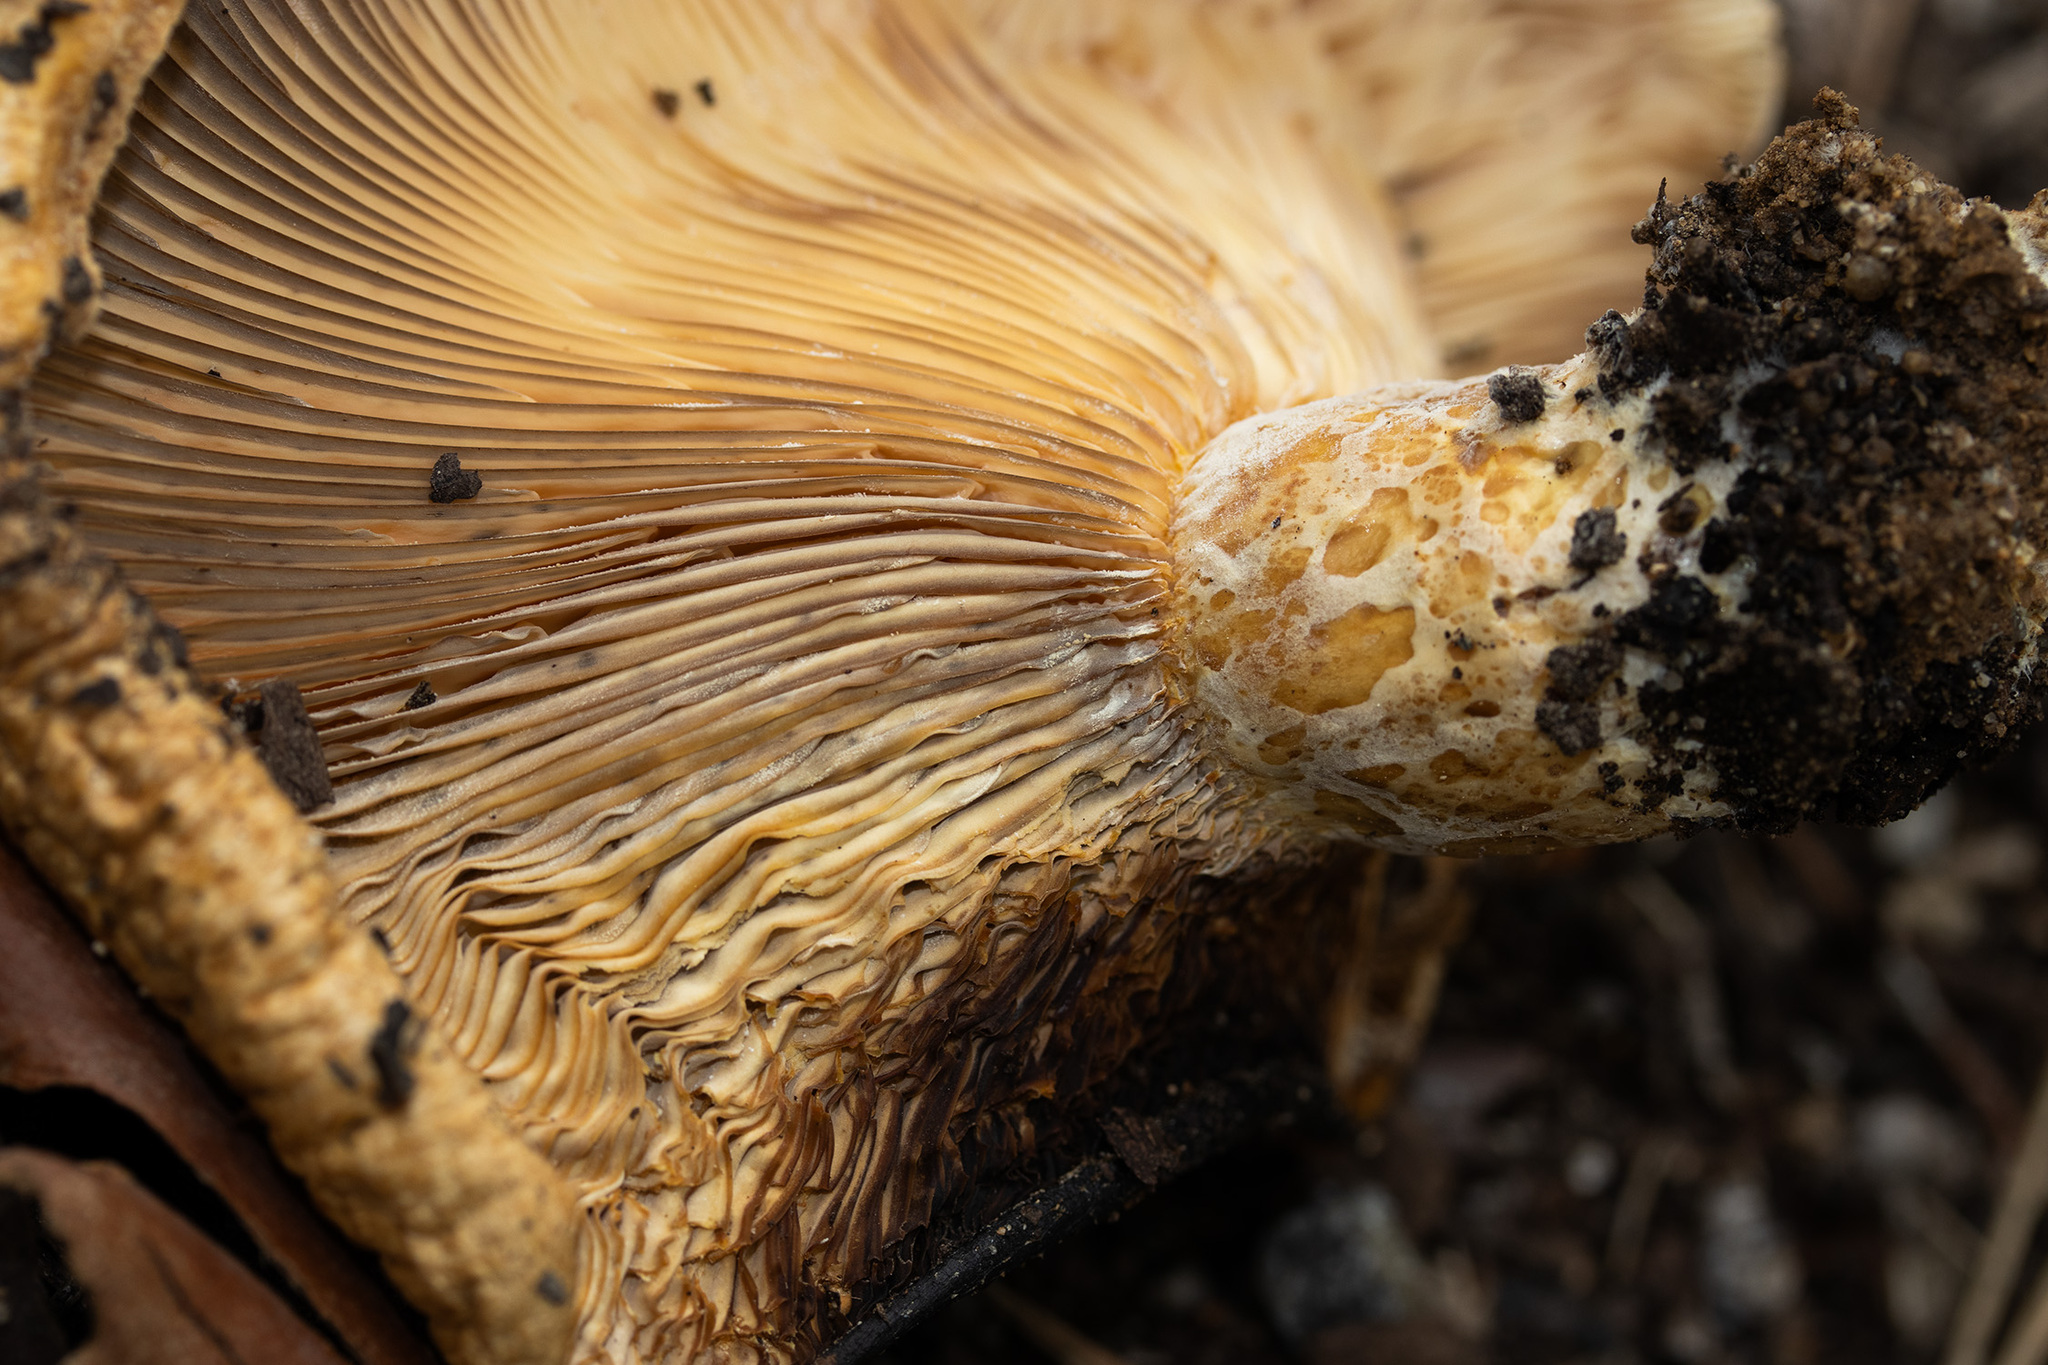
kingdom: Fungi
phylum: Basidiomycota
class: Agaricomycetes
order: Russulales
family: Russulaceae
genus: Lactarius
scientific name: Lactarius alnicola
